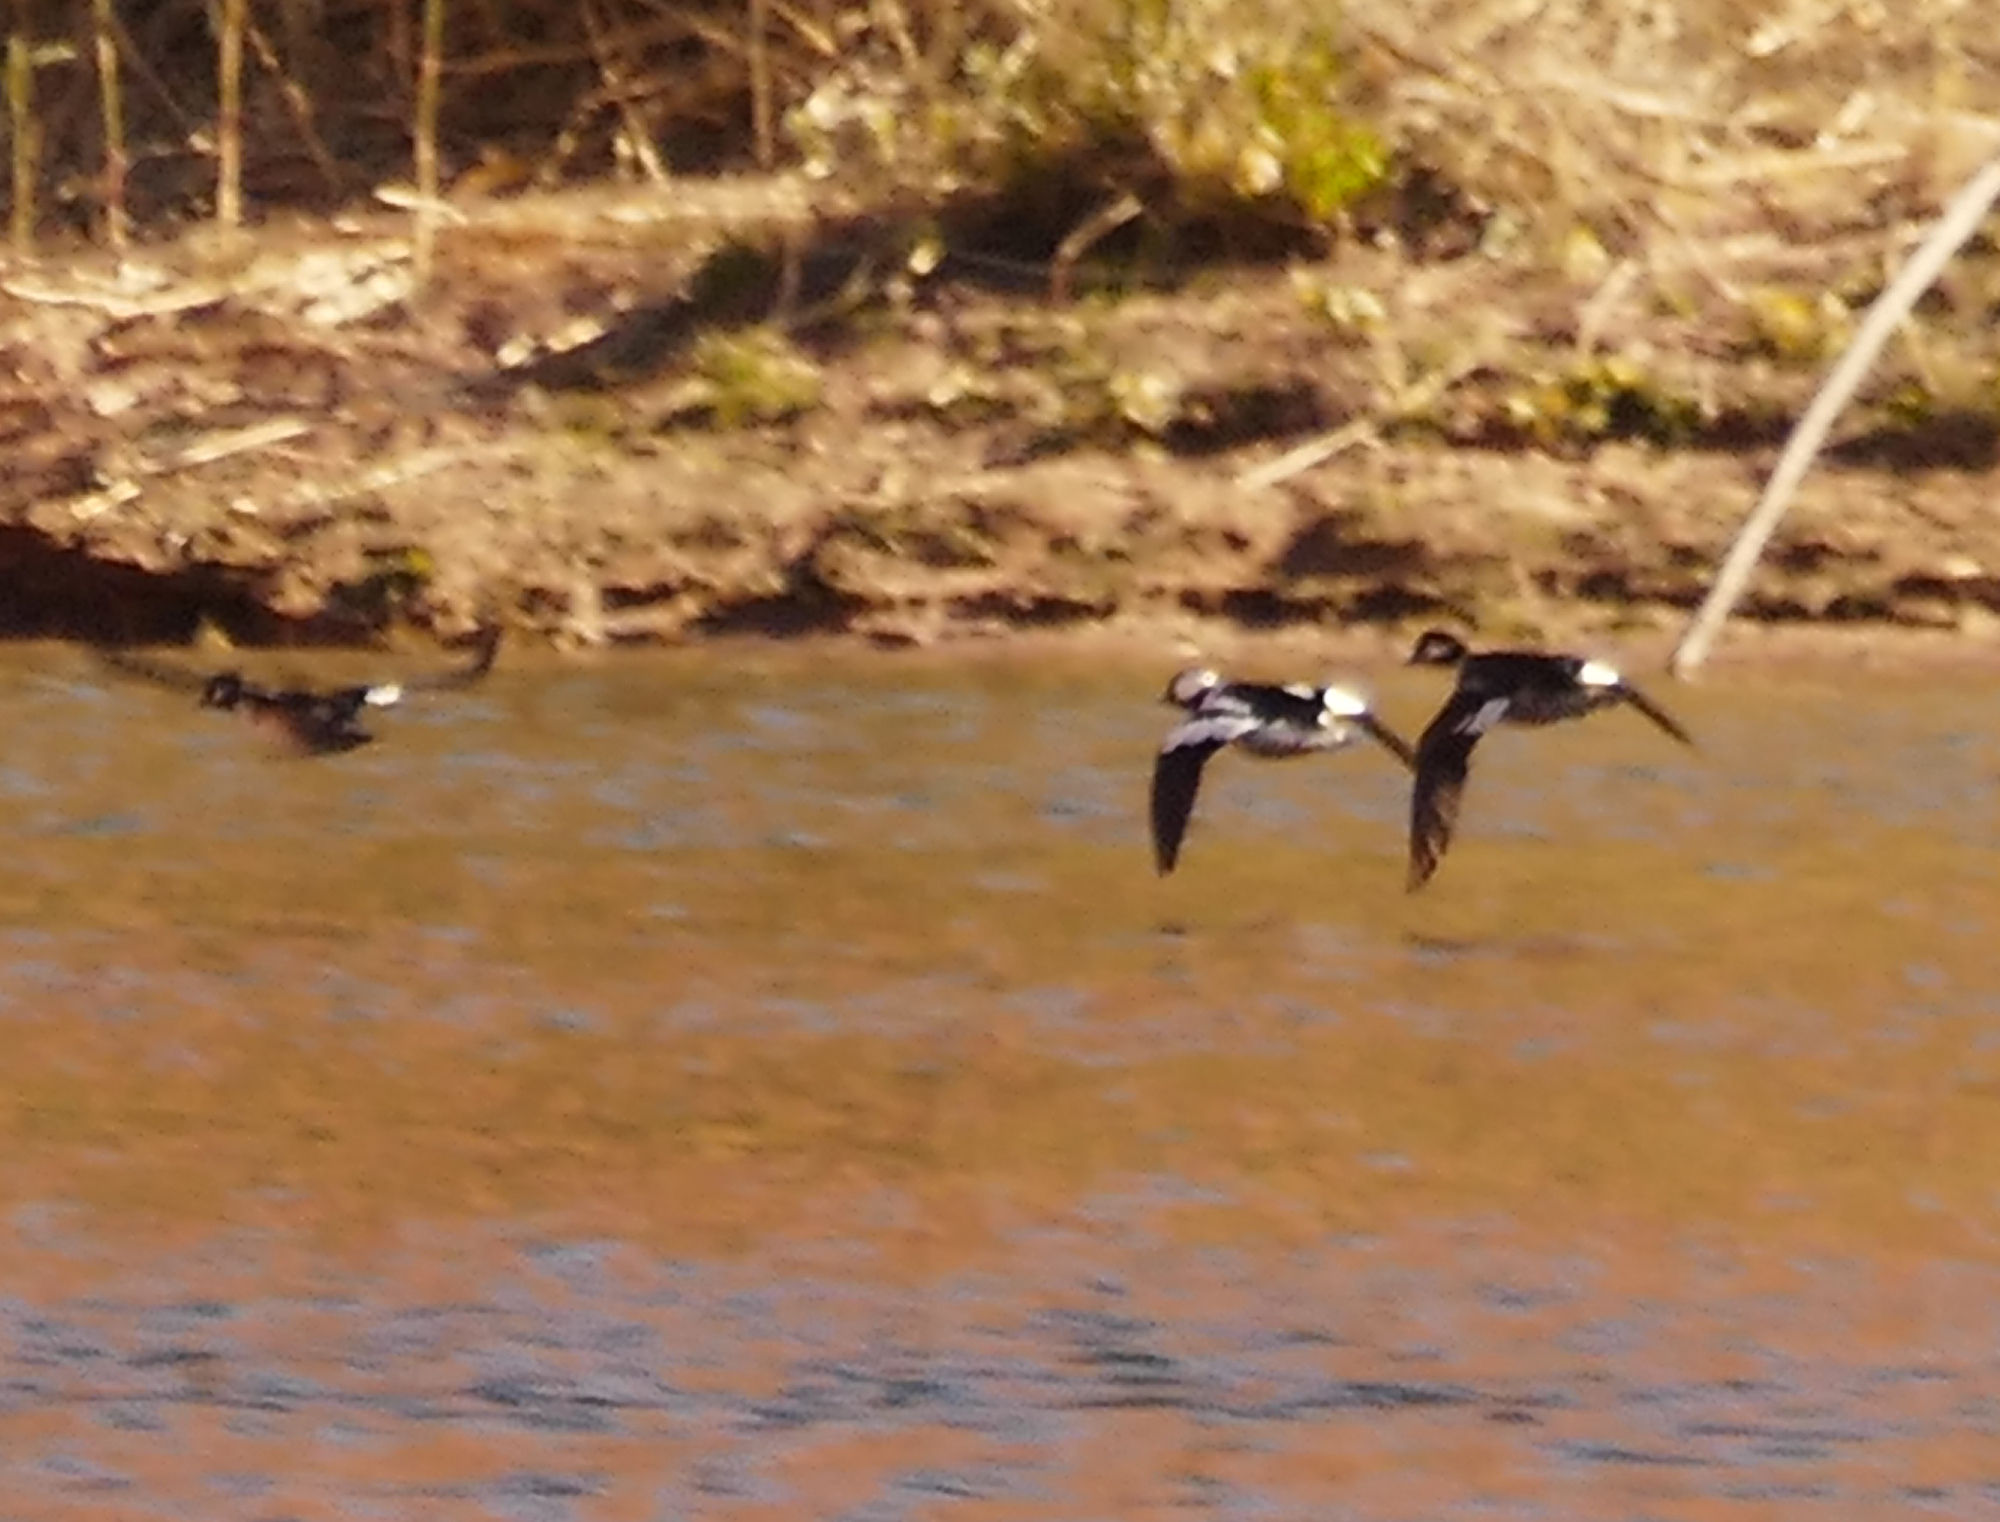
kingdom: Animalia
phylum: Chordata
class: Aves
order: Anseriformes
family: Anatidae
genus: Bucephala
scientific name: Bucephala albeola
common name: Bufflehead
